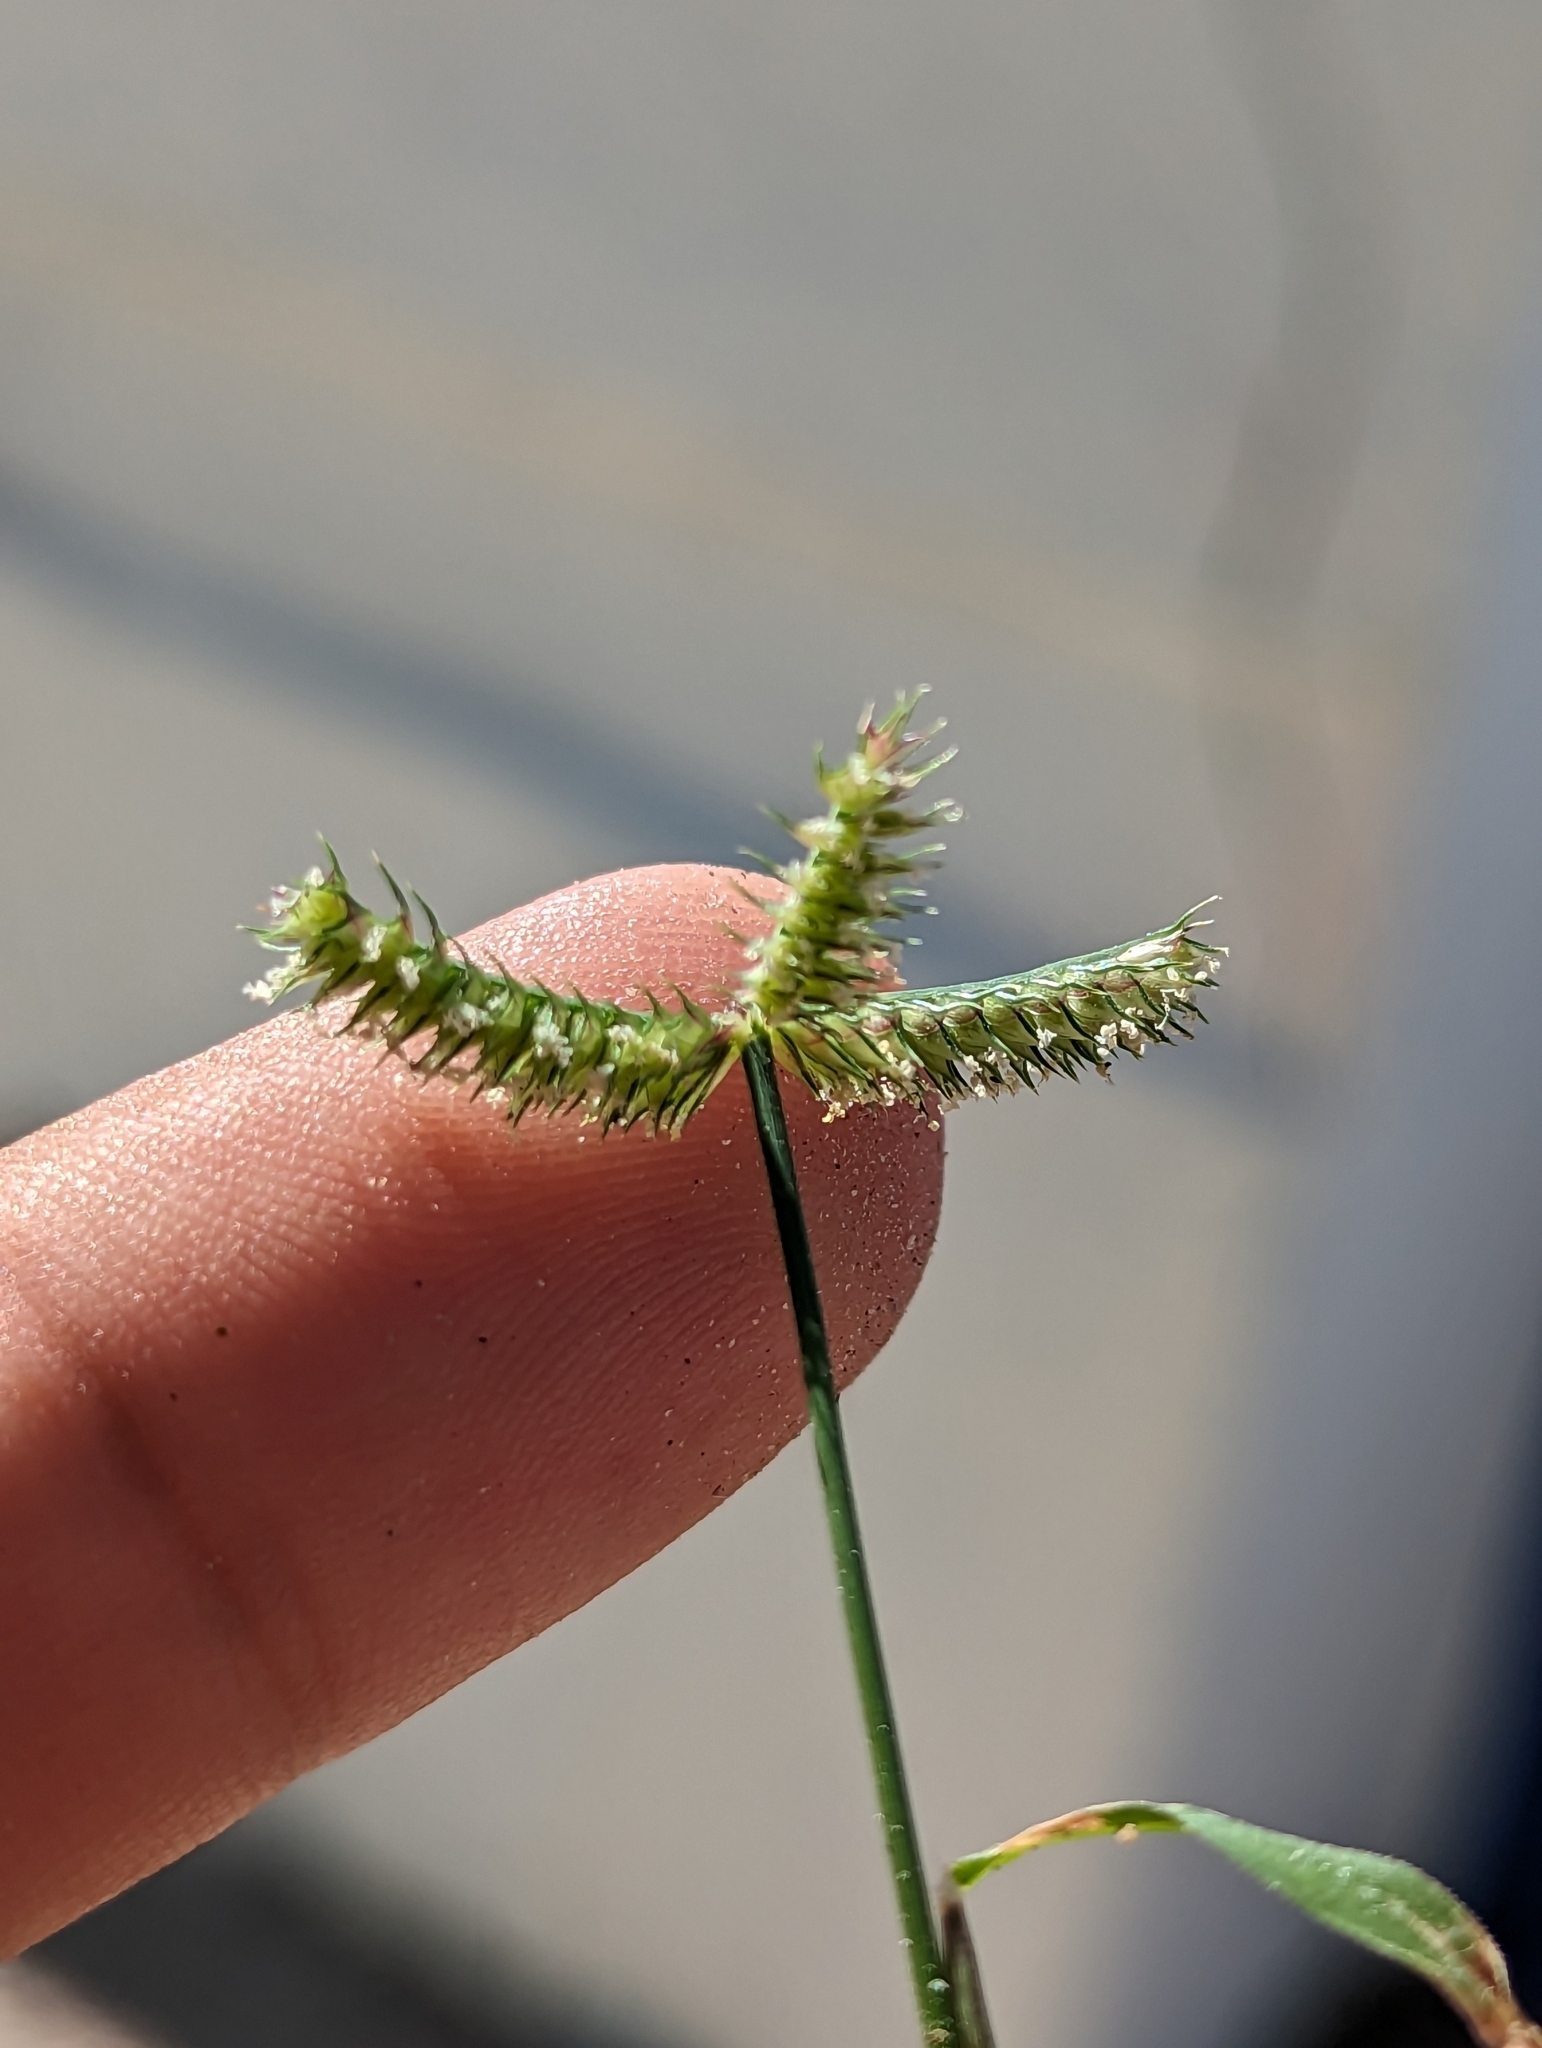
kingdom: Plantae
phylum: Tracheophyta
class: Liliopsida
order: Poales
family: Poaceae
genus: Dactyloctenium
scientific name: Dactyloctenium aegyptium
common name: Egyptian grass
